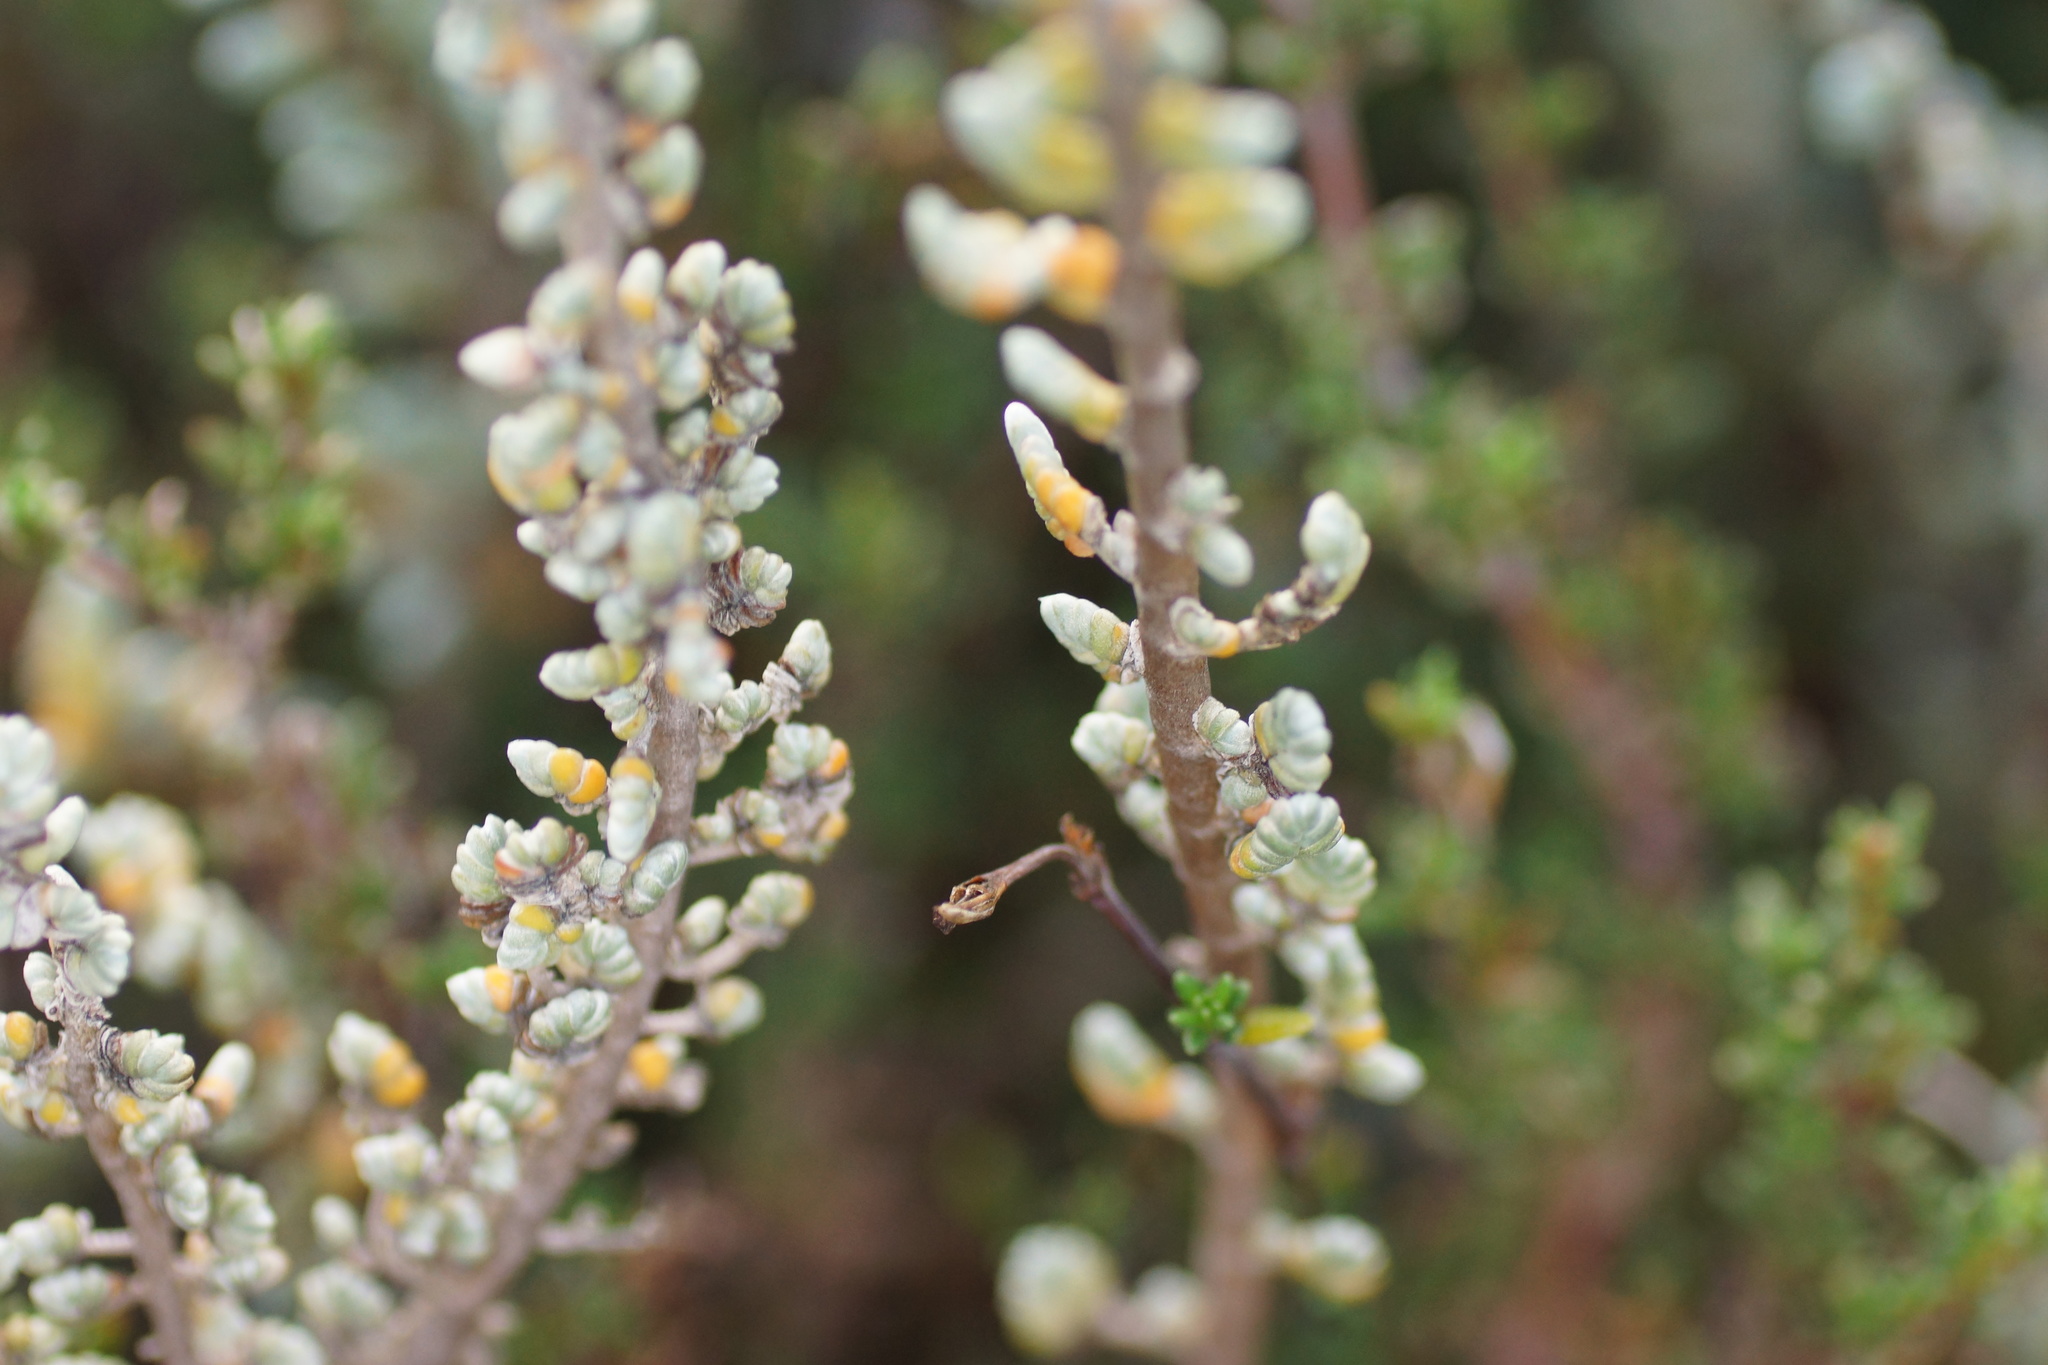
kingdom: Plantae
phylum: Tracheophyta
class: Magnoliopsida
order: Solanales
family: Convolvulaceae
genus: Wilsonia
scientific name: Wilsonia humilis
